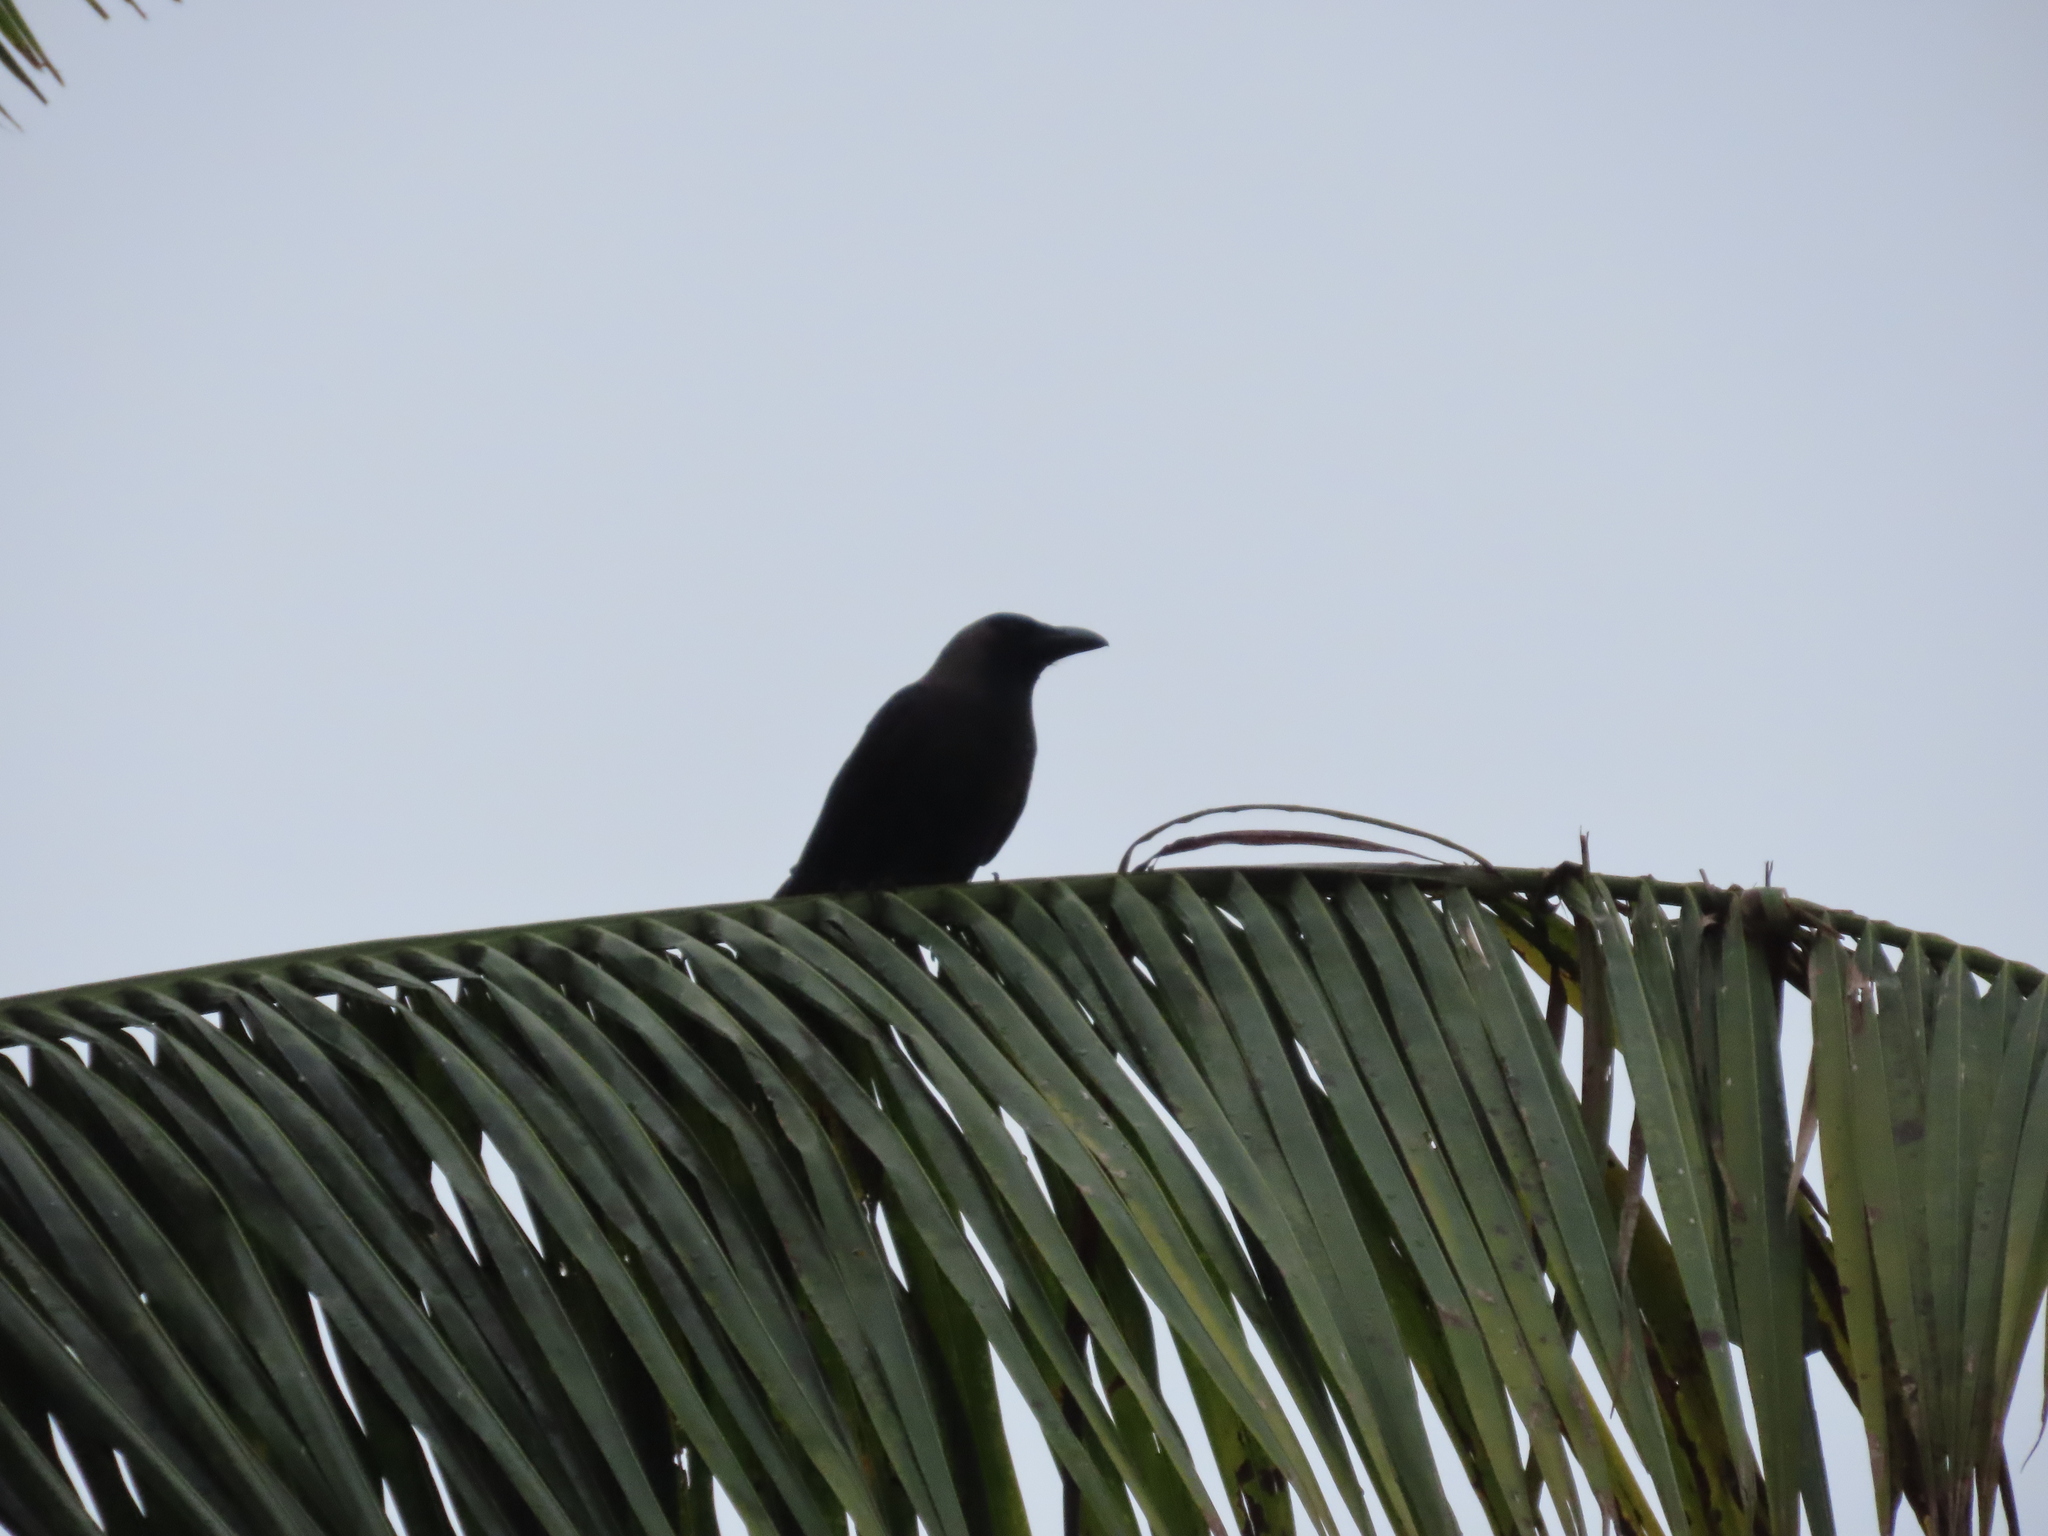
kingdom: Animalia
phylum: Chordata
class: Aves
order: Passeriformes
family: Corvidae
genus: Corvus
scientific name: Corvus splendens
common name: House crow
